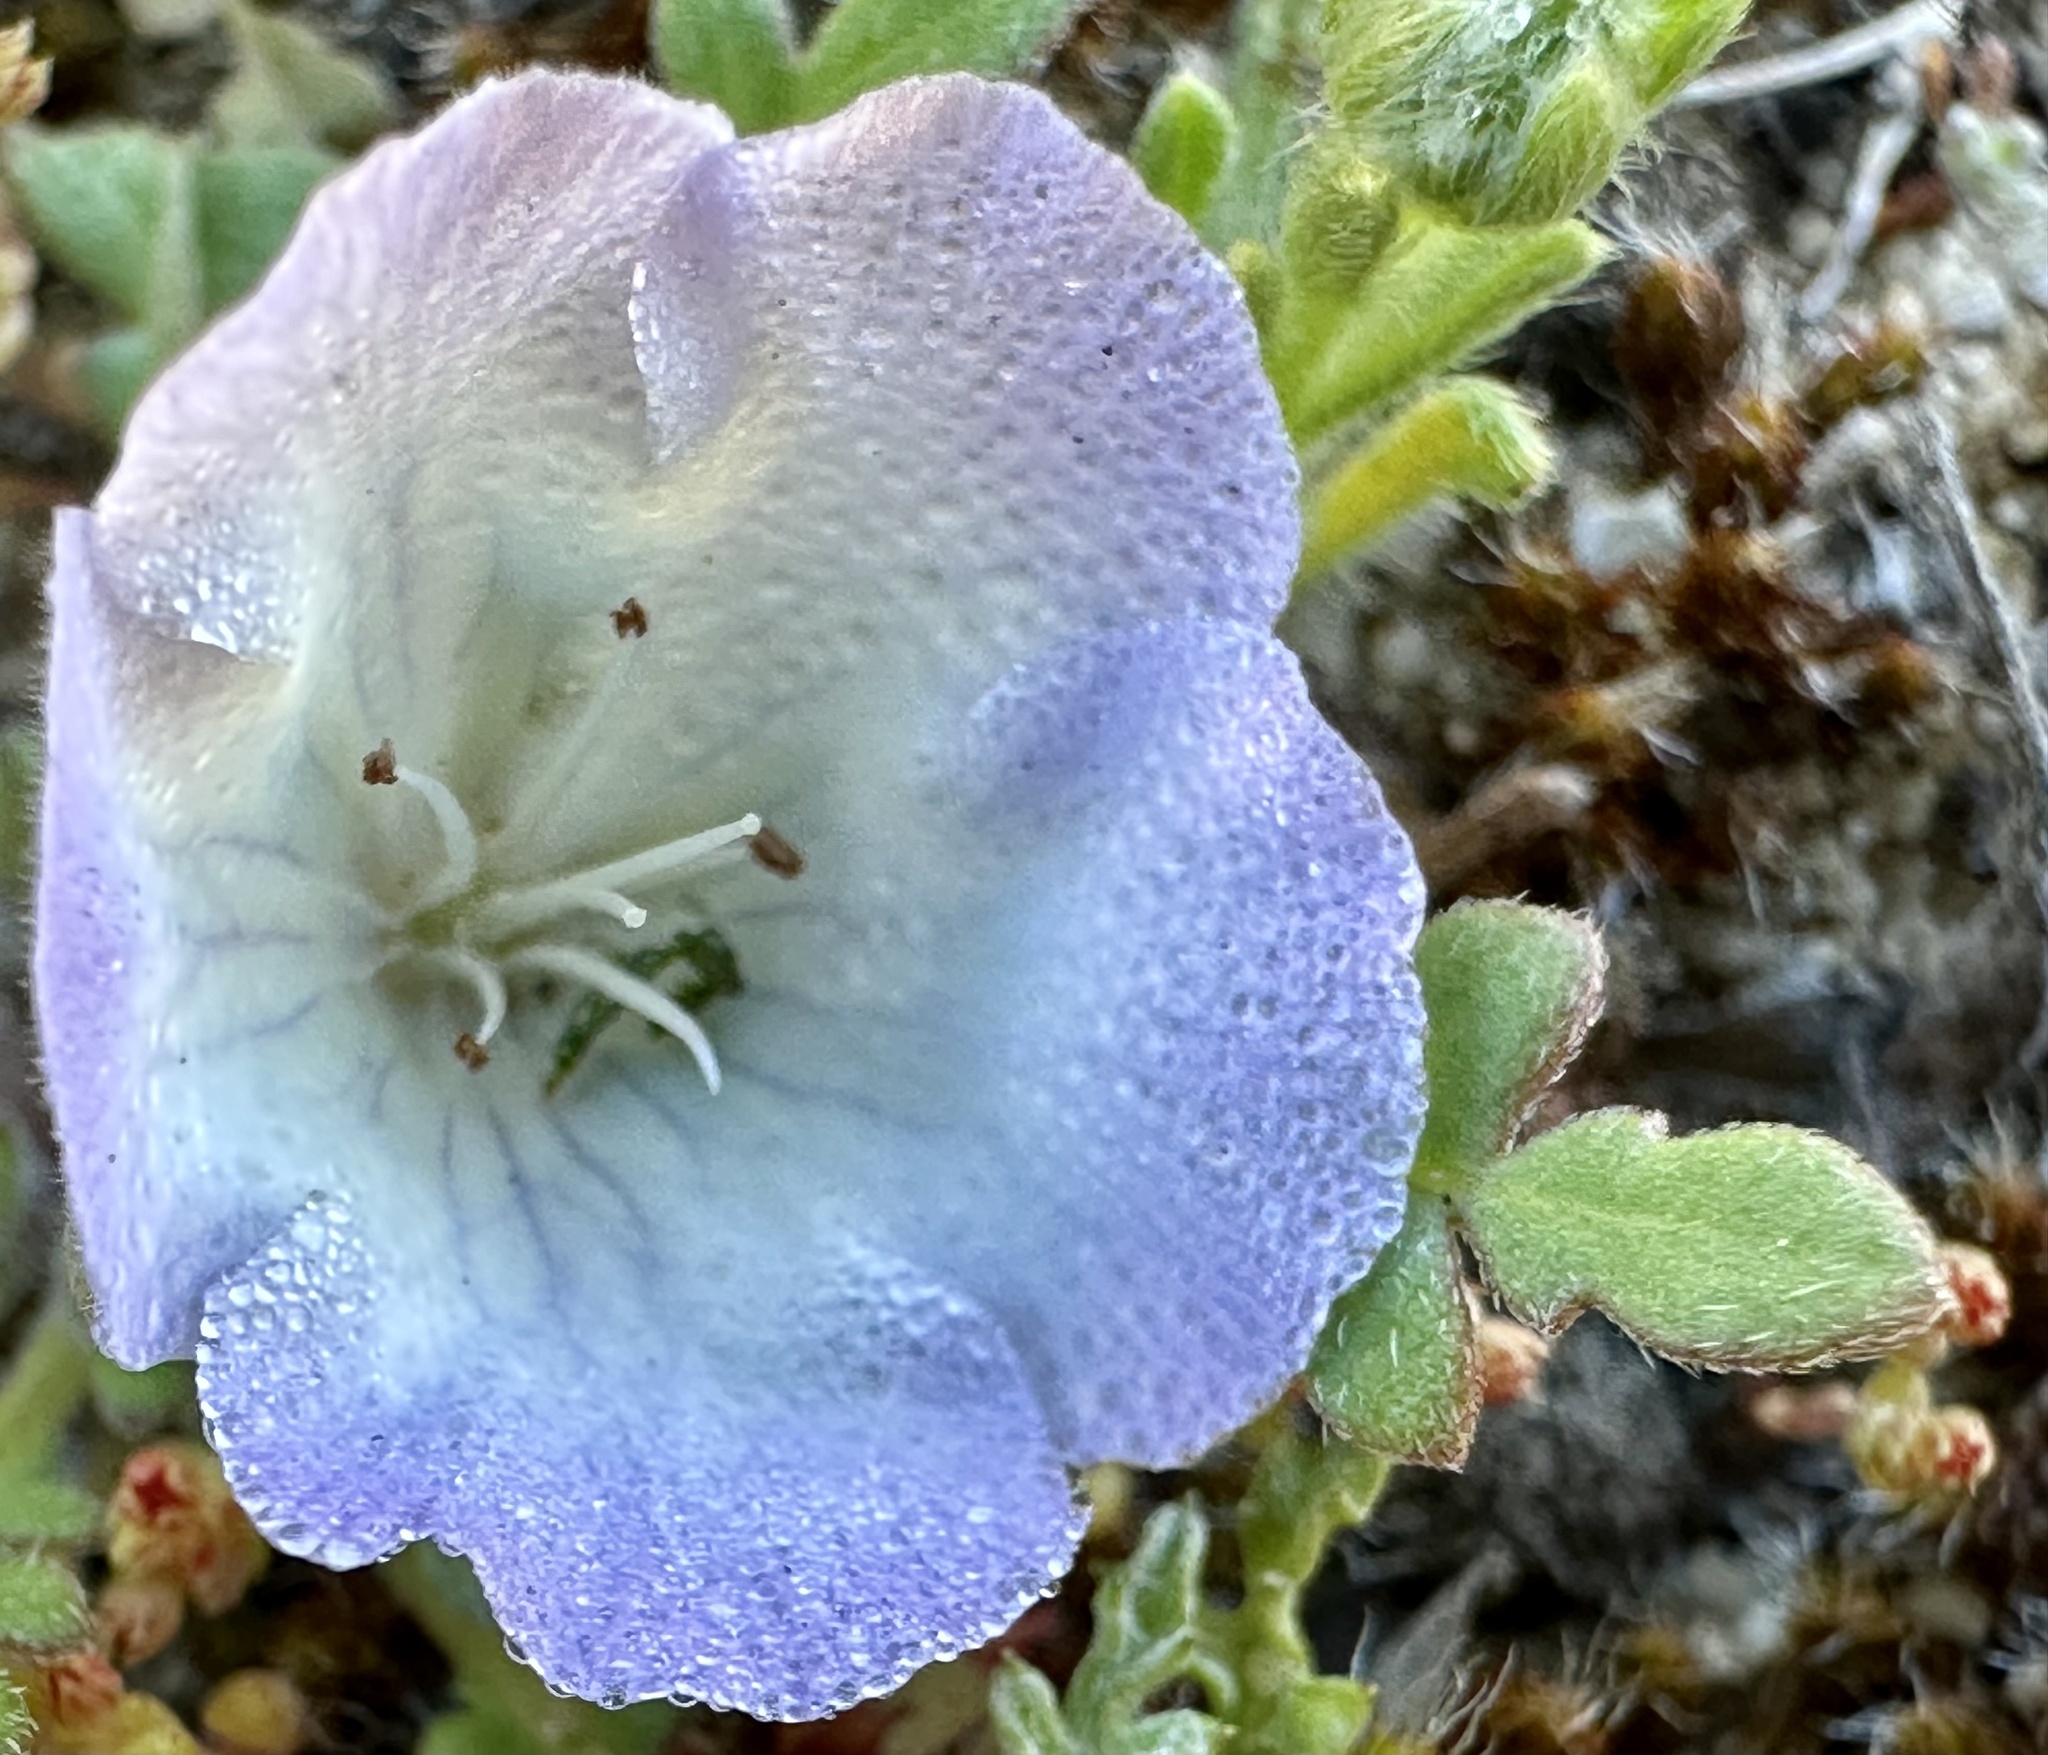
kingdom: Plantae
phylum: Tracheophyta
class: Magnoliopsida
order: Boraginales
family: Hydrophyllaceae
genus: Phacelia
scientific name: Phacelia douglasii
